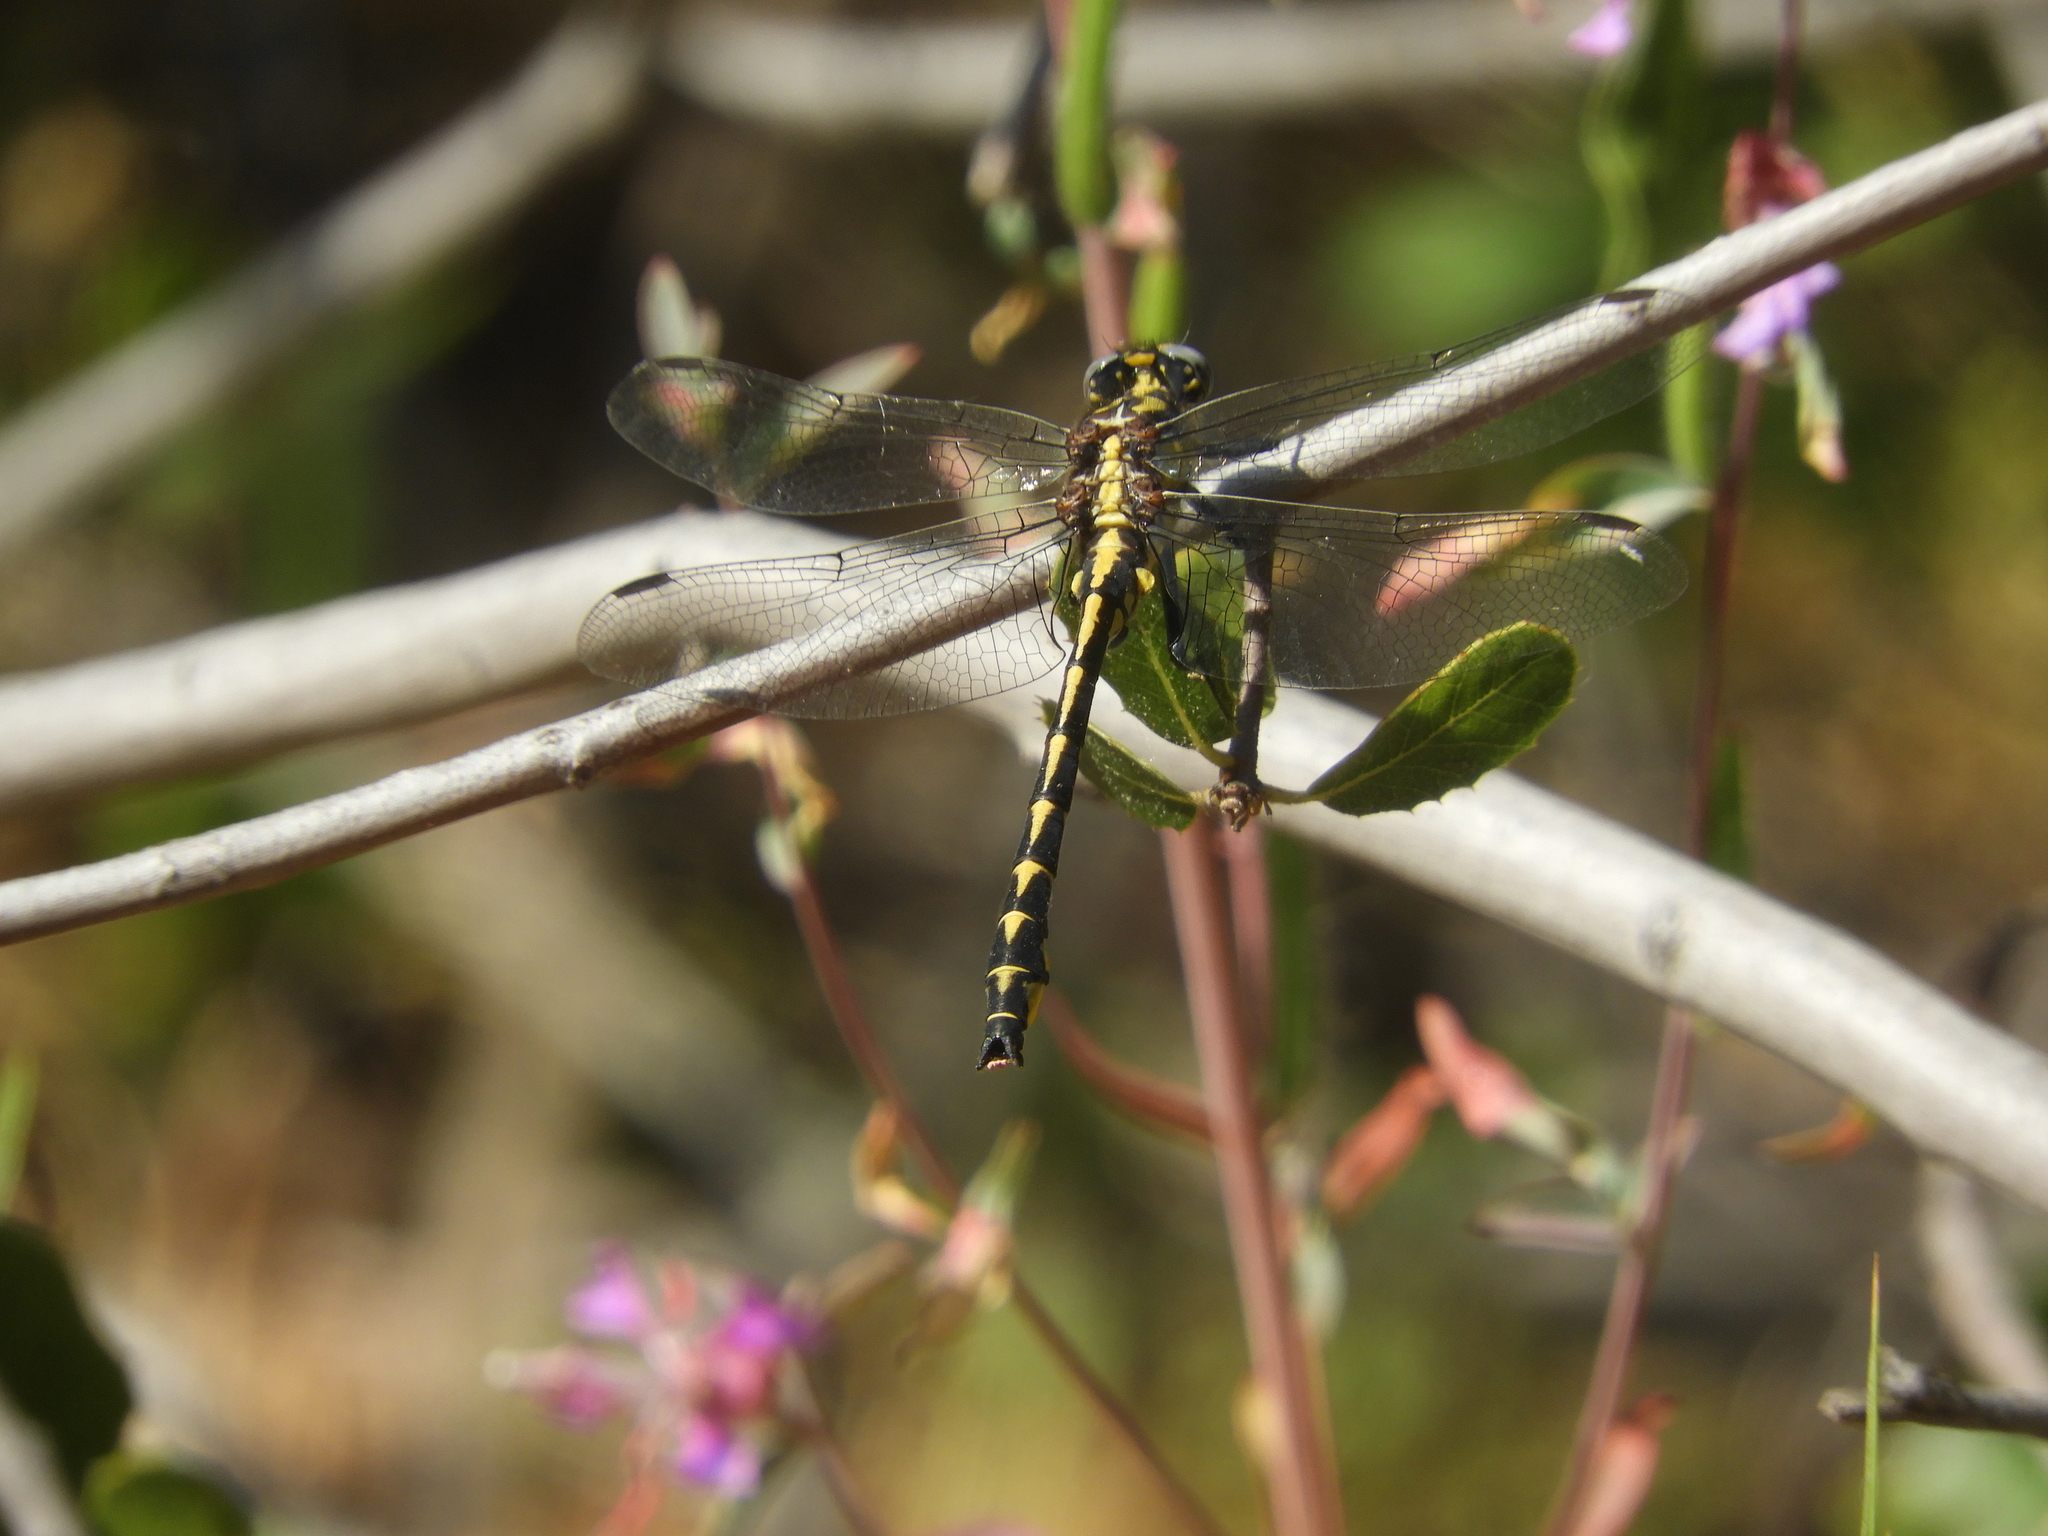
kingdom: Animalia
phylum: Arthropoda
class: Insecta
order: Odonata
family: Gomphidae
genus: Phanogomphus
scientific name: Phanogomphus kurilis
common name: Pacific clubtail
